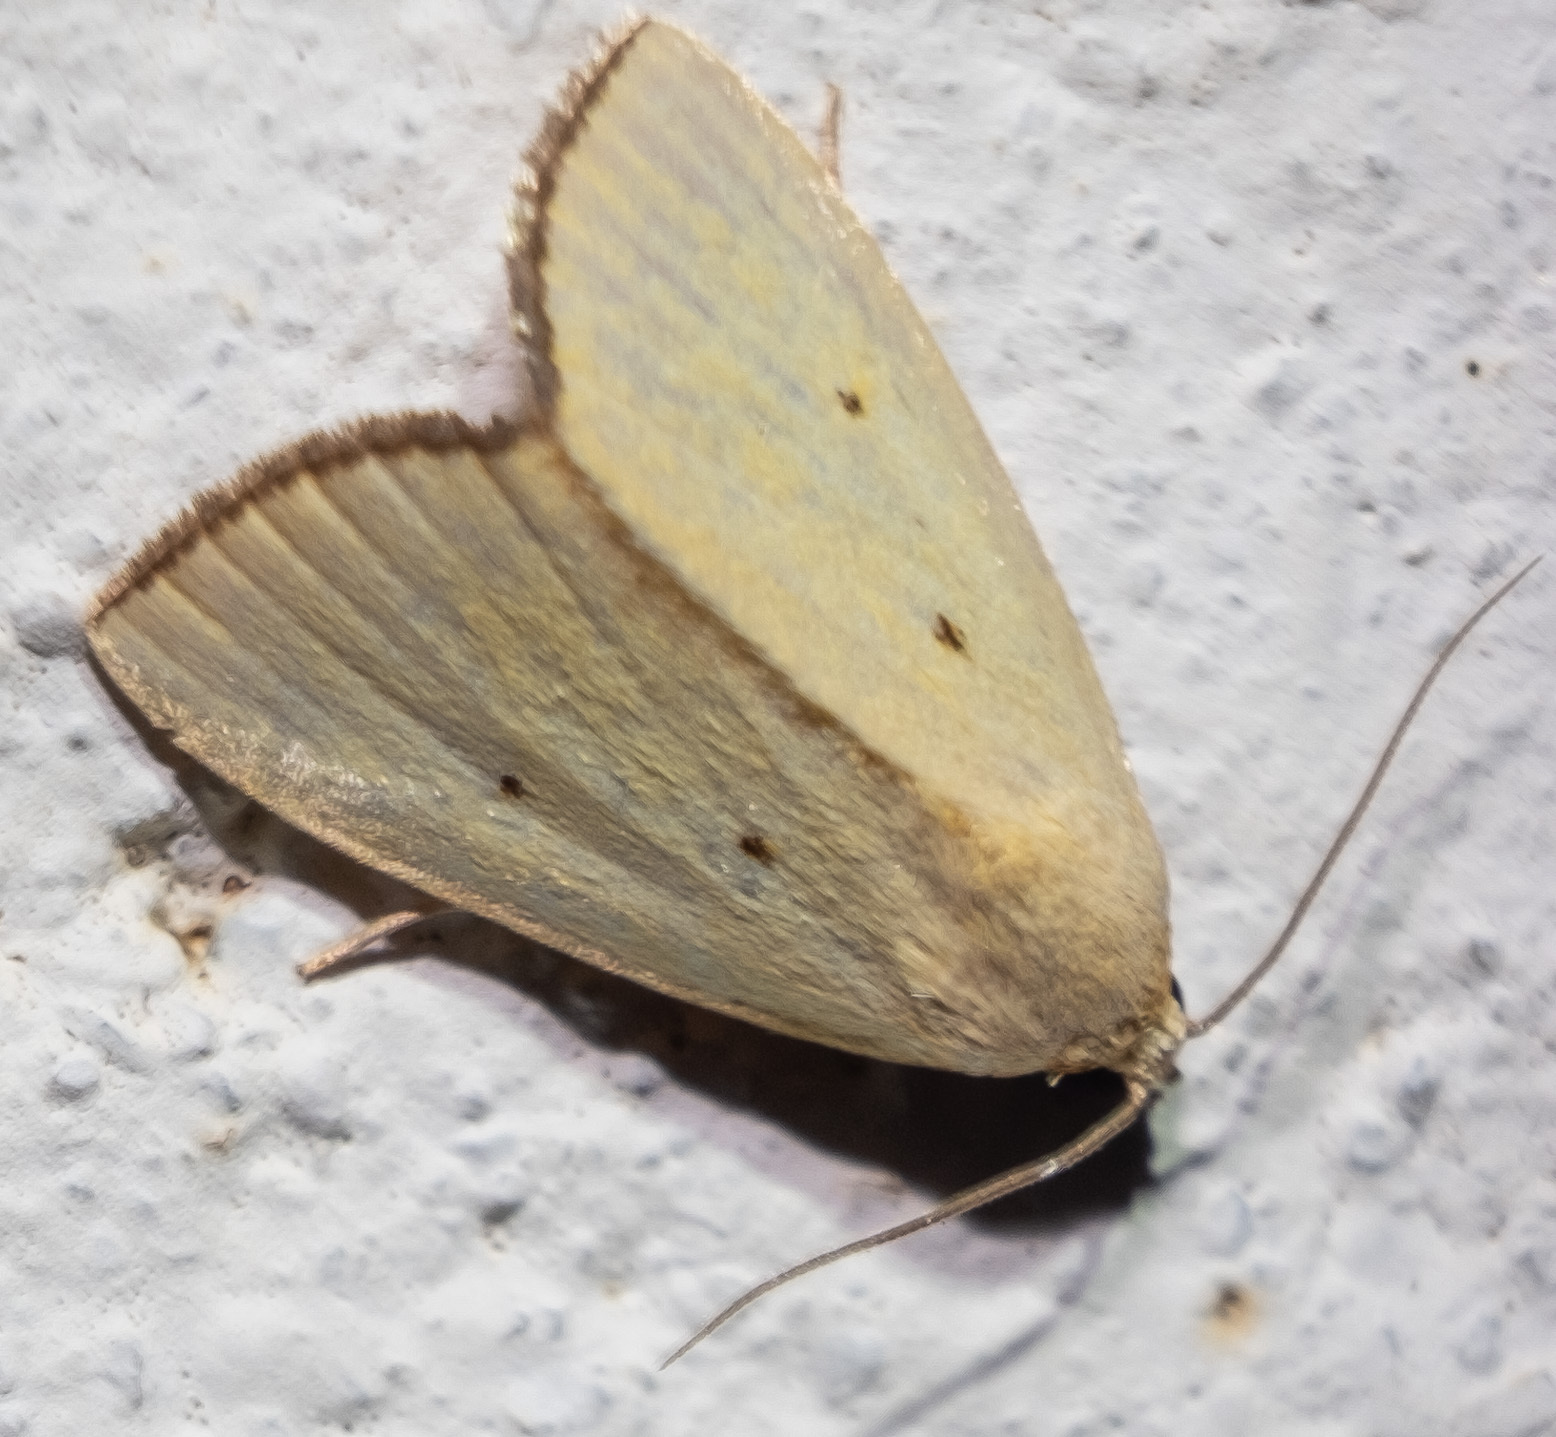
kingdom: Animalia
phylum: Arthropoda
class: Insecta
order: Lepidoptera
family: Noctuidae
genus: Marimatha
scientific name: Marimatha nigrofimbria
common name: Black-bordered lemon moth
